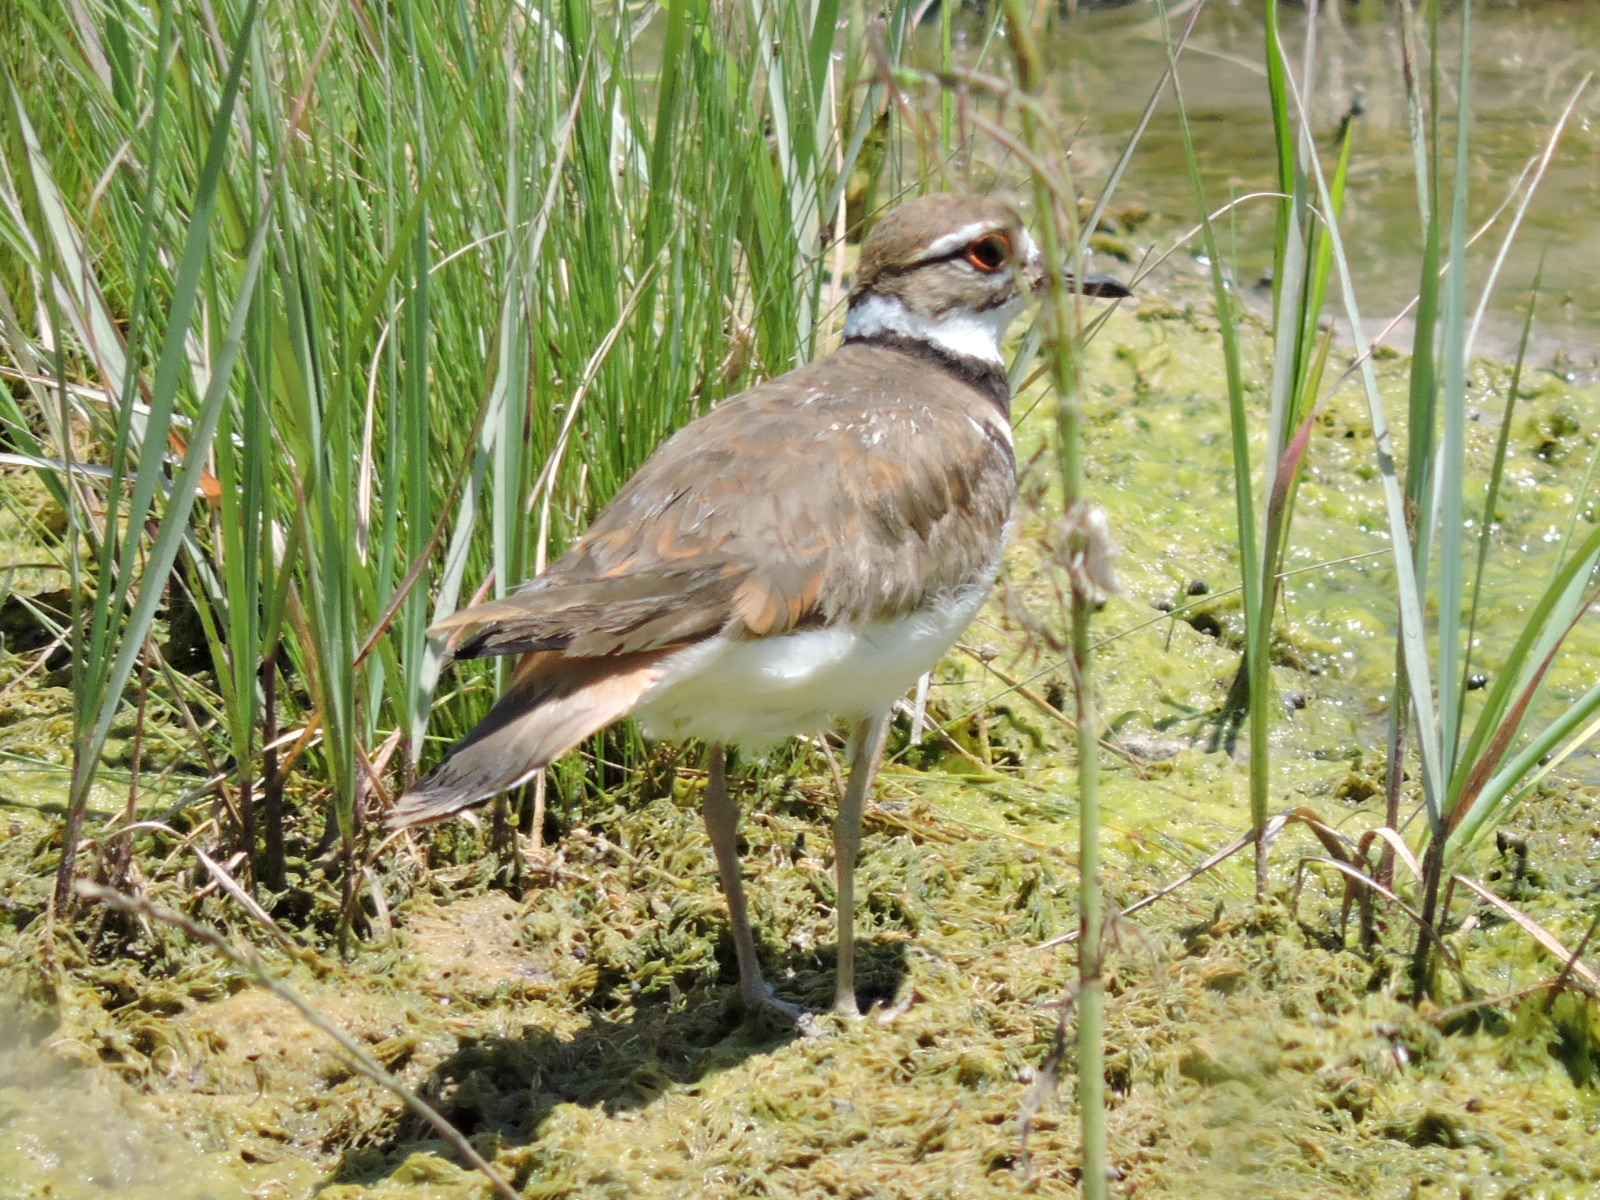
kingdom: Animalia
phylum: Chordata
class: Aves
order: Charadriiformes
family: Charadriidae
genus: Charadrius
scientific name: Charadrius vociferus
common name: Killdeer
